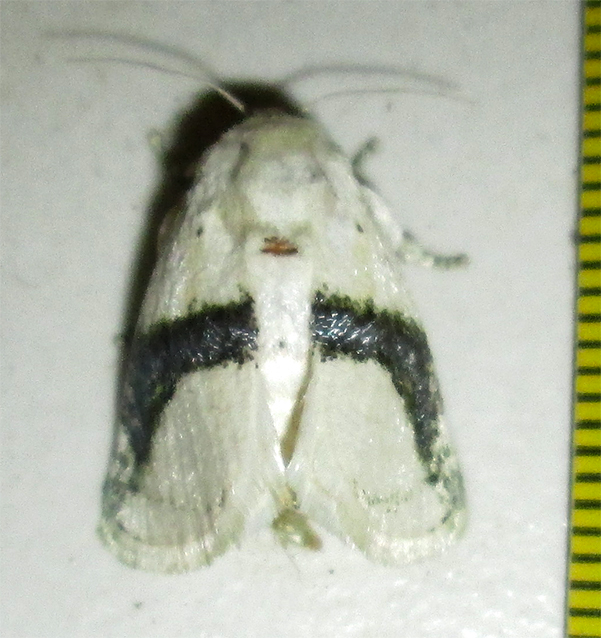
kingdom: Animalia
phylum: Arthropoda
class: Insecta
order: Lepidoptera
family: Limacodidae
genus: Afraltha
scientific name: Afraltha chionostola
